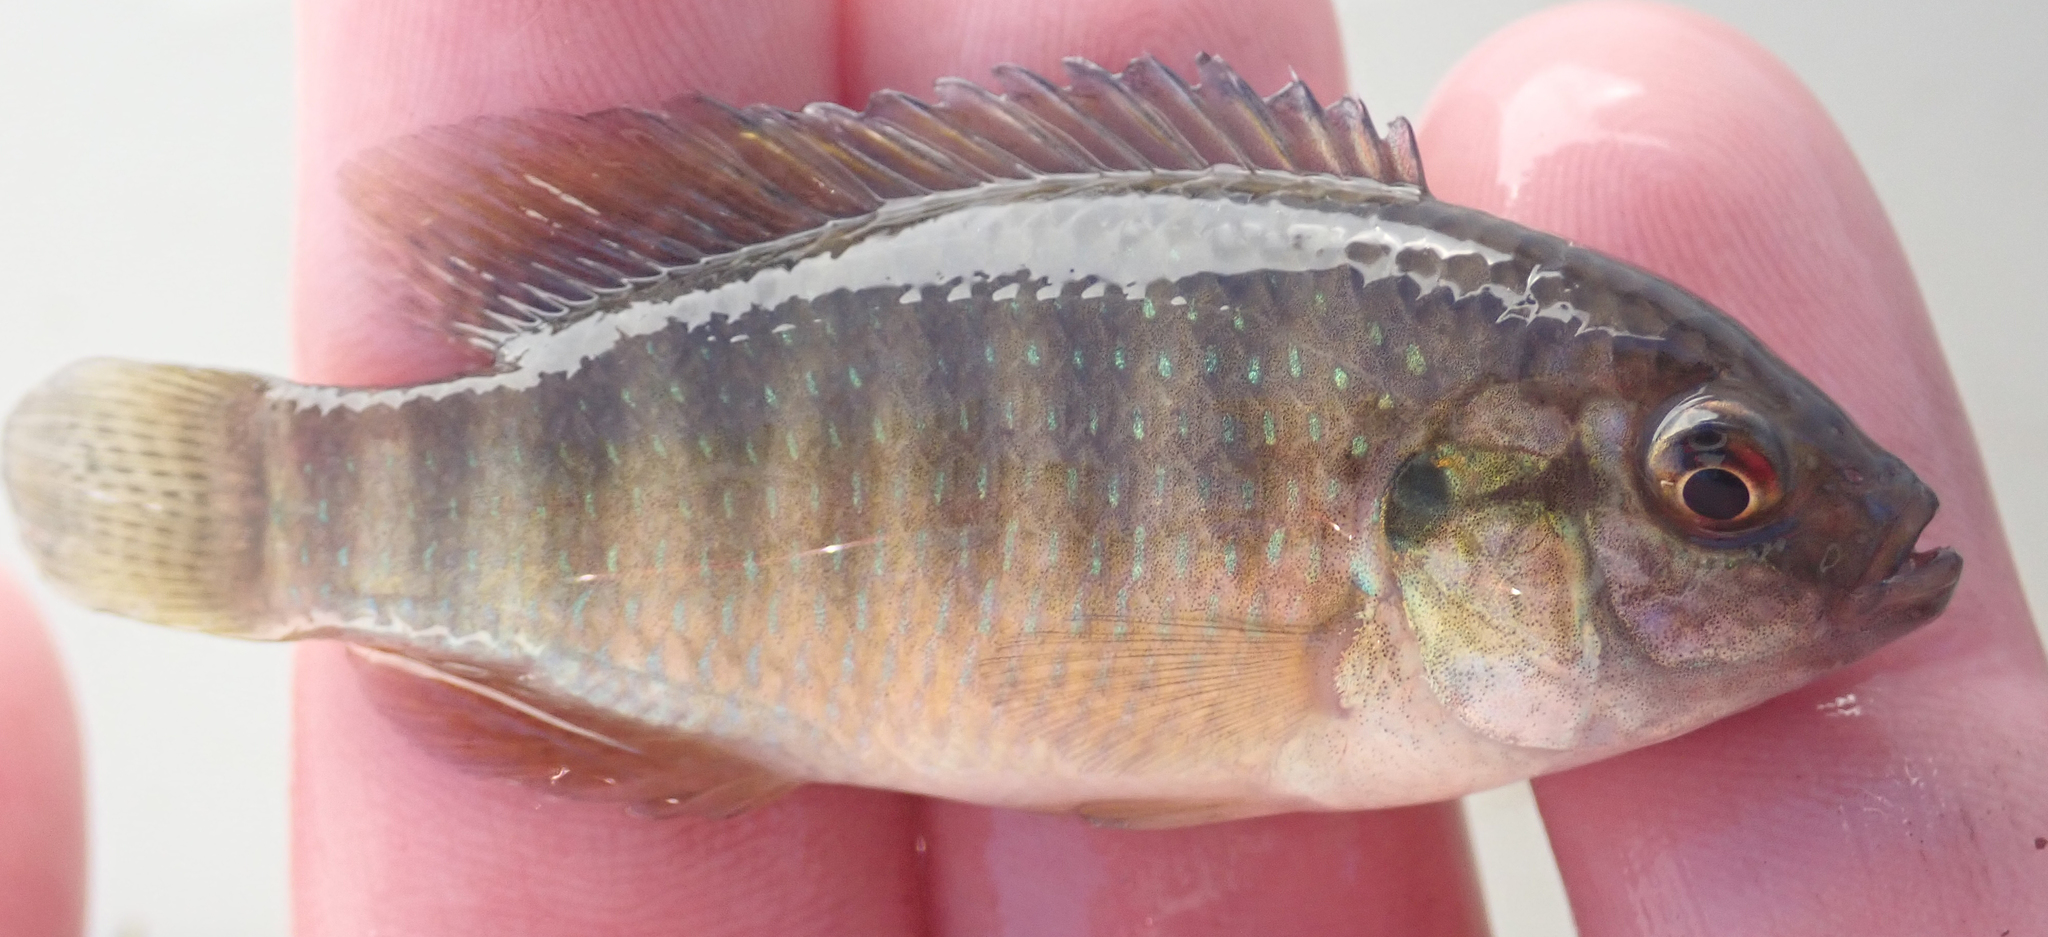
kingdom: Animalia
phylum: Chordata
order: Perciformes
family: Cichlidae
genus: Tilapia
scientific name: Tilapia ruweti
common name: Okavango tilapia
